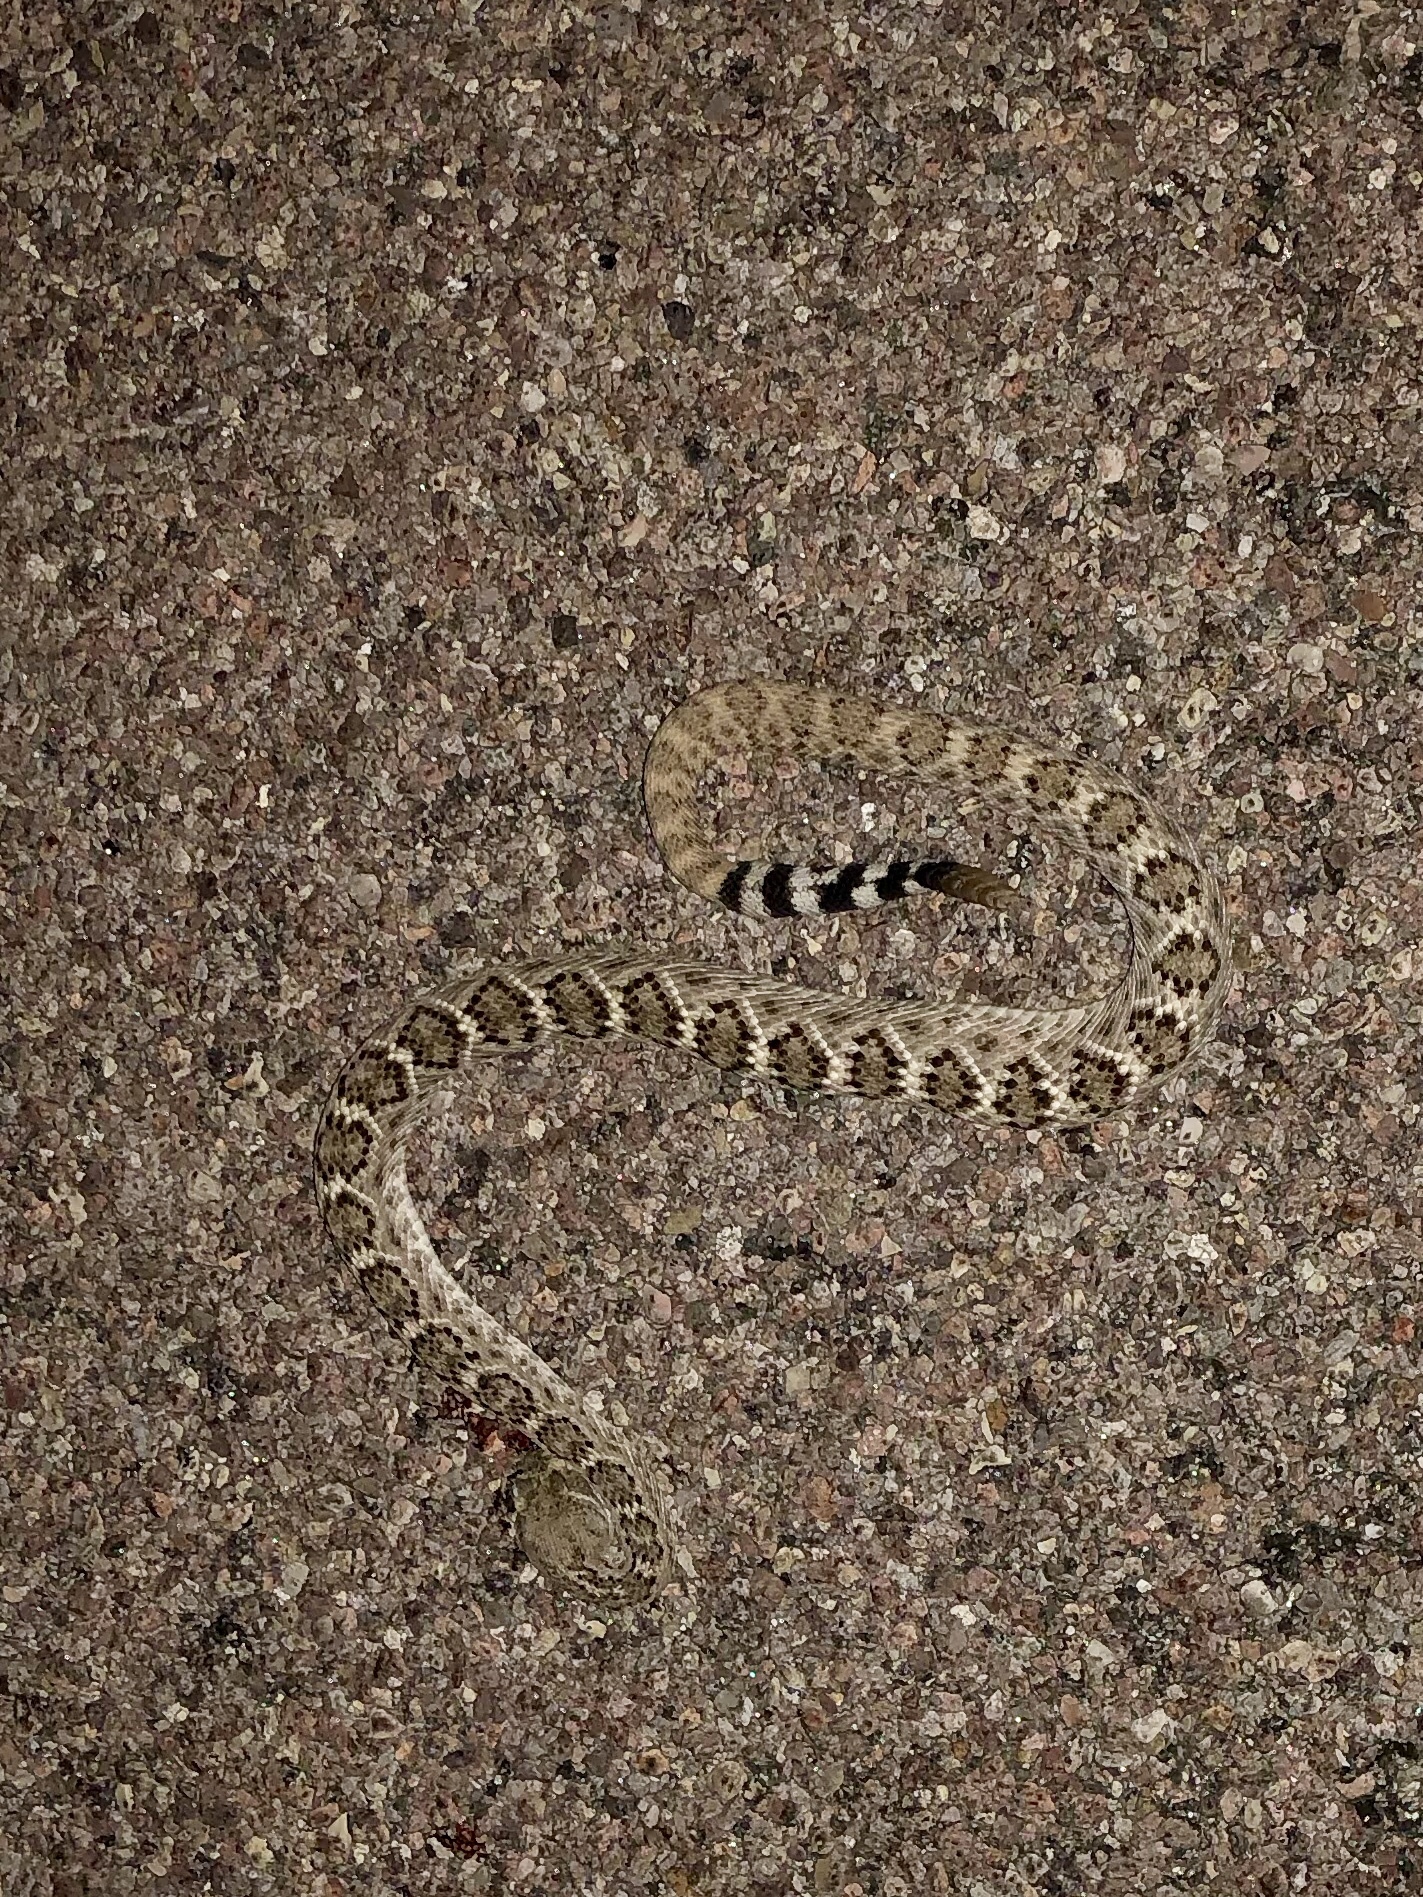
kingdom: Animalia
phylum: Chordata
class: Squamata
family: Viperidae
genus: Crotalus
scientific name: Crotalus atrox
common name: Western diamond-backed rattlesnake
